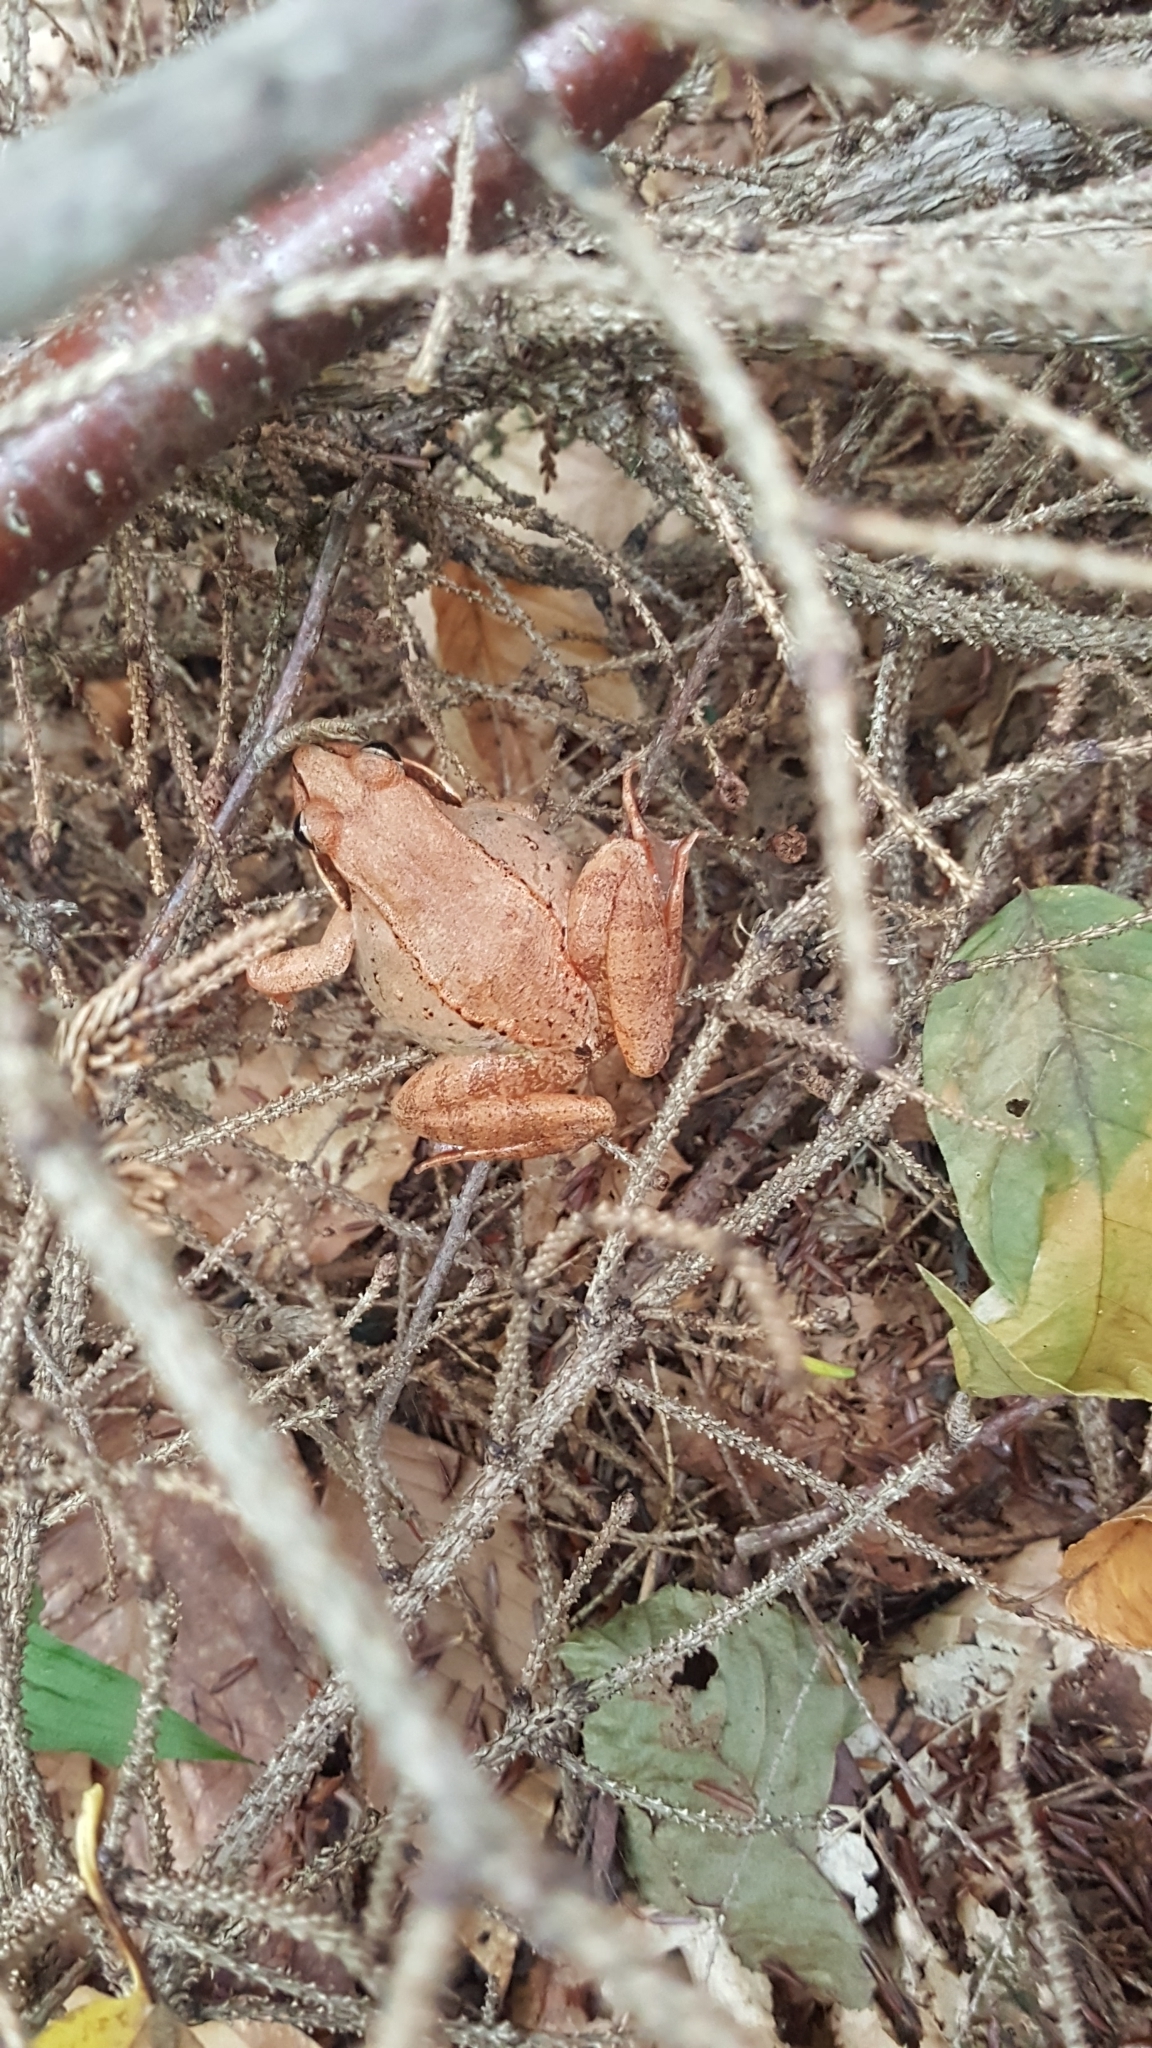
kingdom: Animalia
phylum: Chordata
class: Amphibia
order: Anura
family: Ranidae
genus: Lithobates
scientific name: Lithobates sylvaticus
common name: Wood frog
